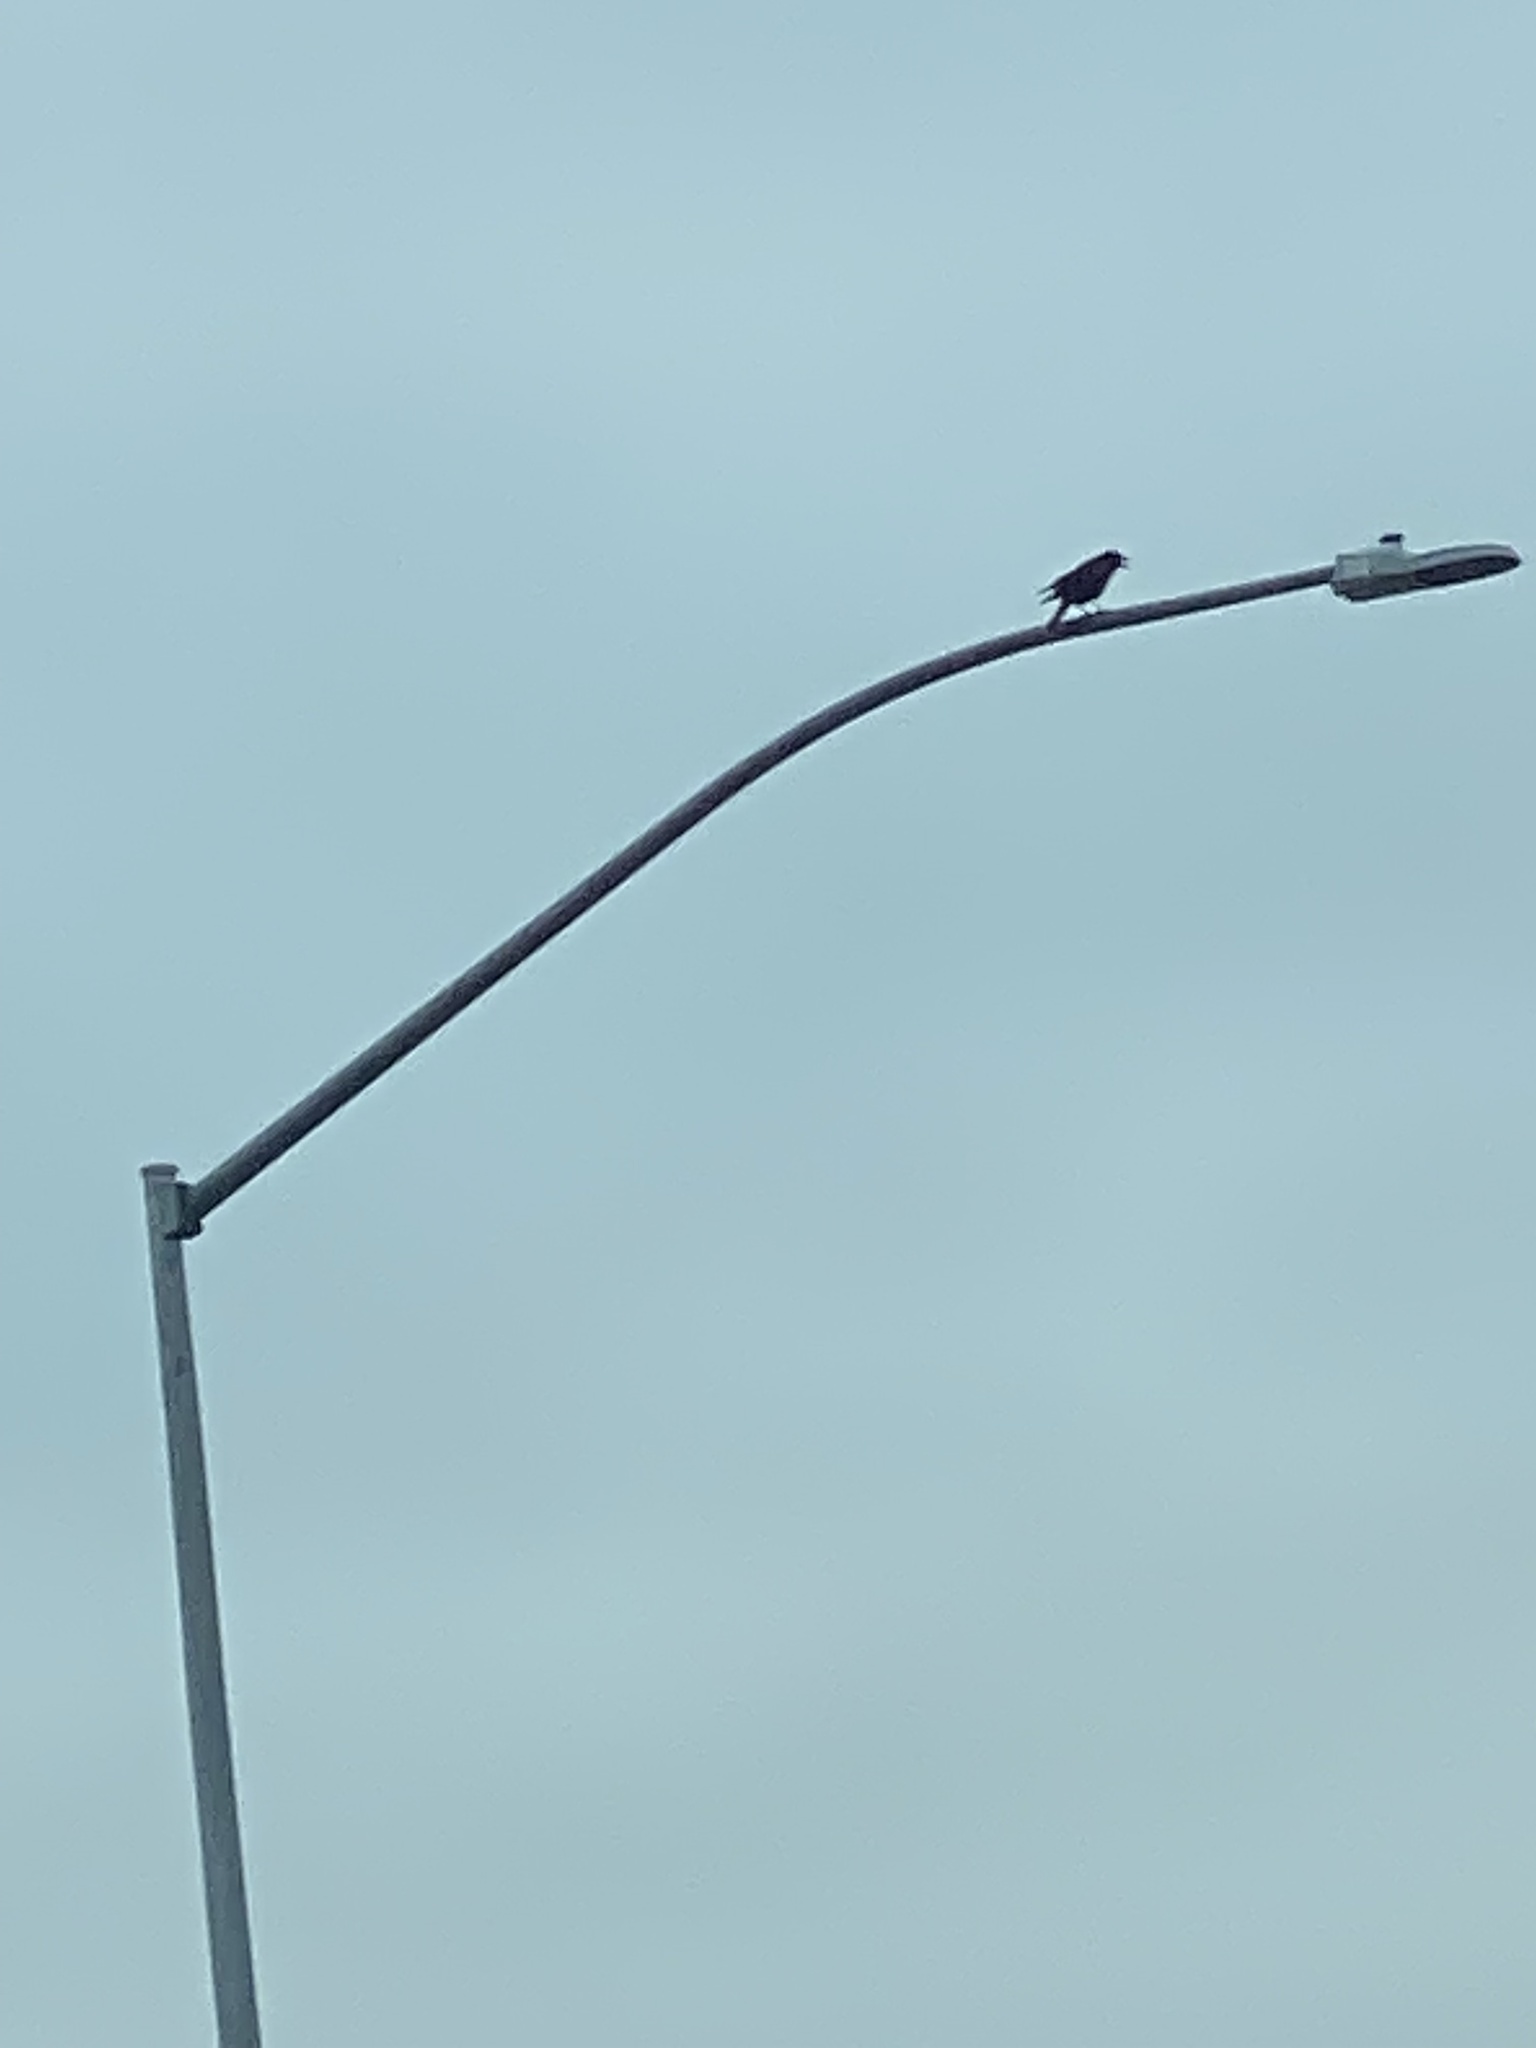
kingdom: Animalia
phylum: Chordata
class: Aves
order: Passeriformes
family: Corvidae
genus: Corvus
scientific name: Corvus brachyrhynchos
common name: American crow
